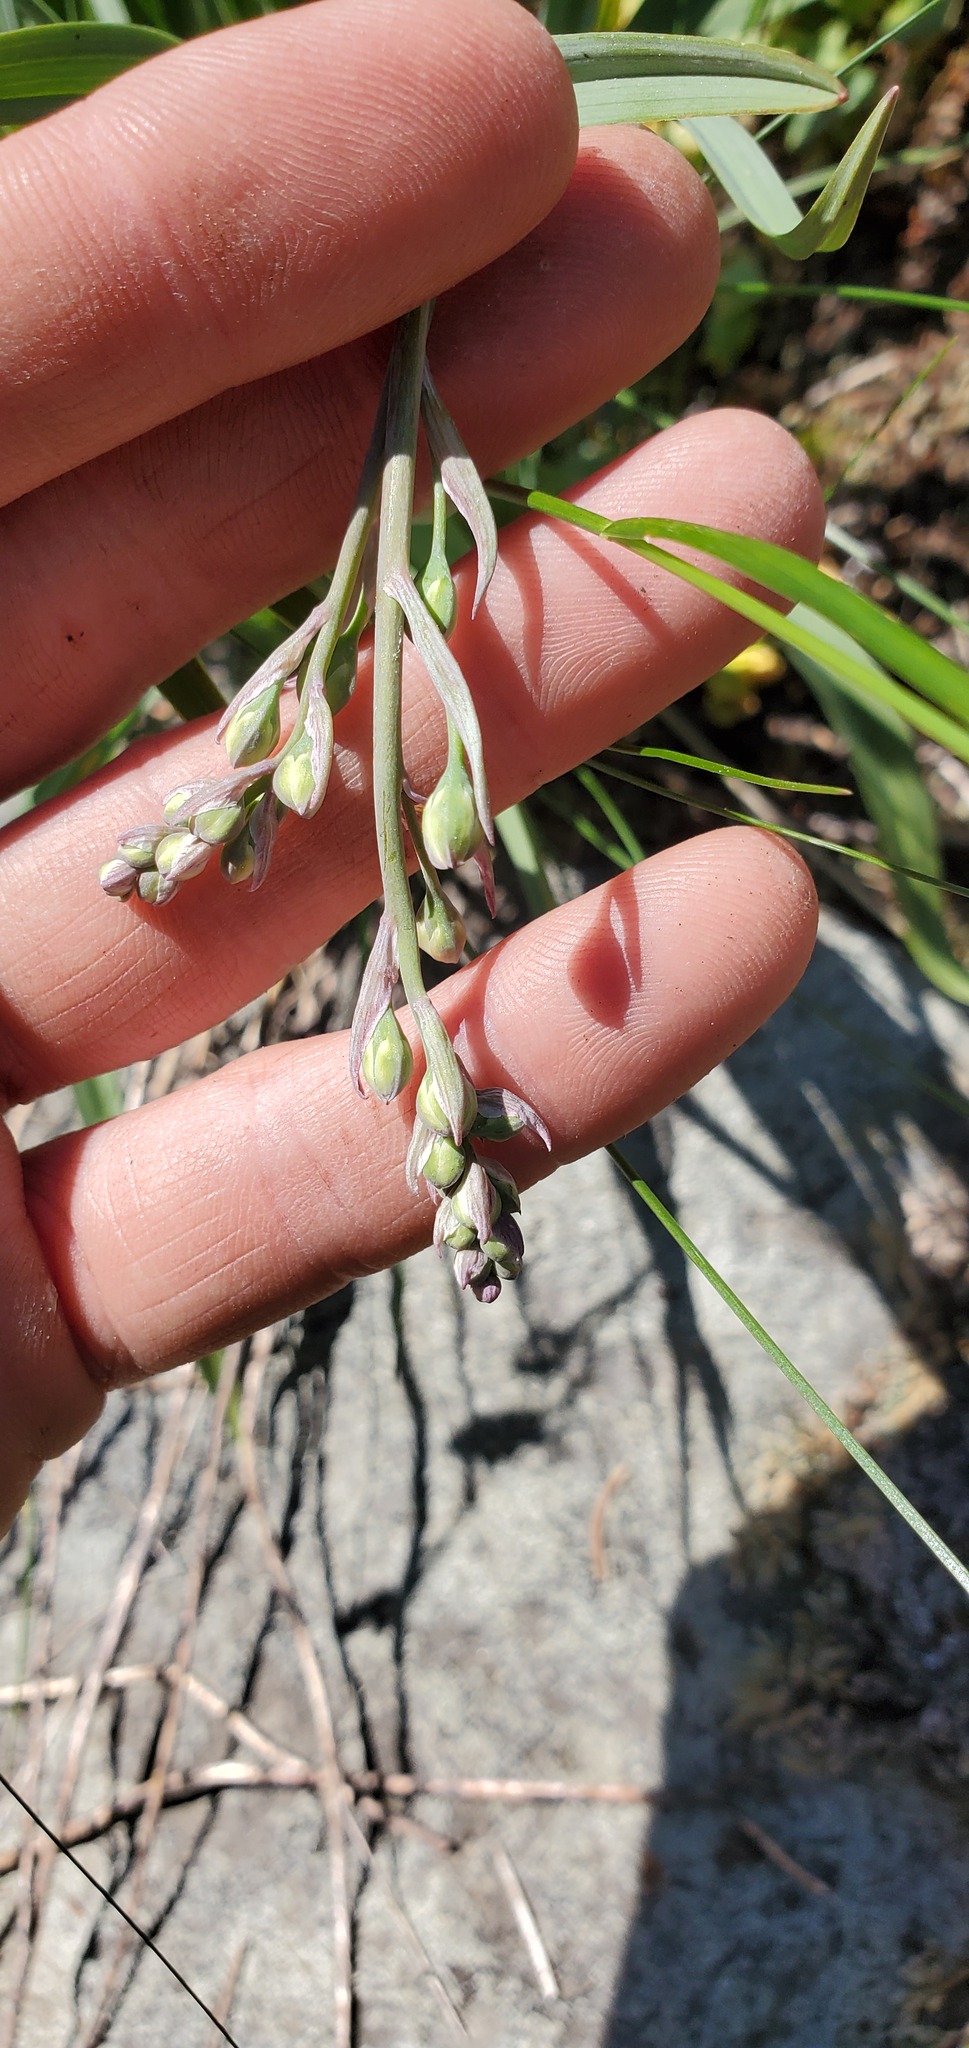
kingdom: Plantae
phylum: Tracheophyta
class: Liliopsida
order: Liliales
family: Melanthiaceae
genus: Anticlea
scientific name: Anticlea elegans
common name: Mountain death camas
